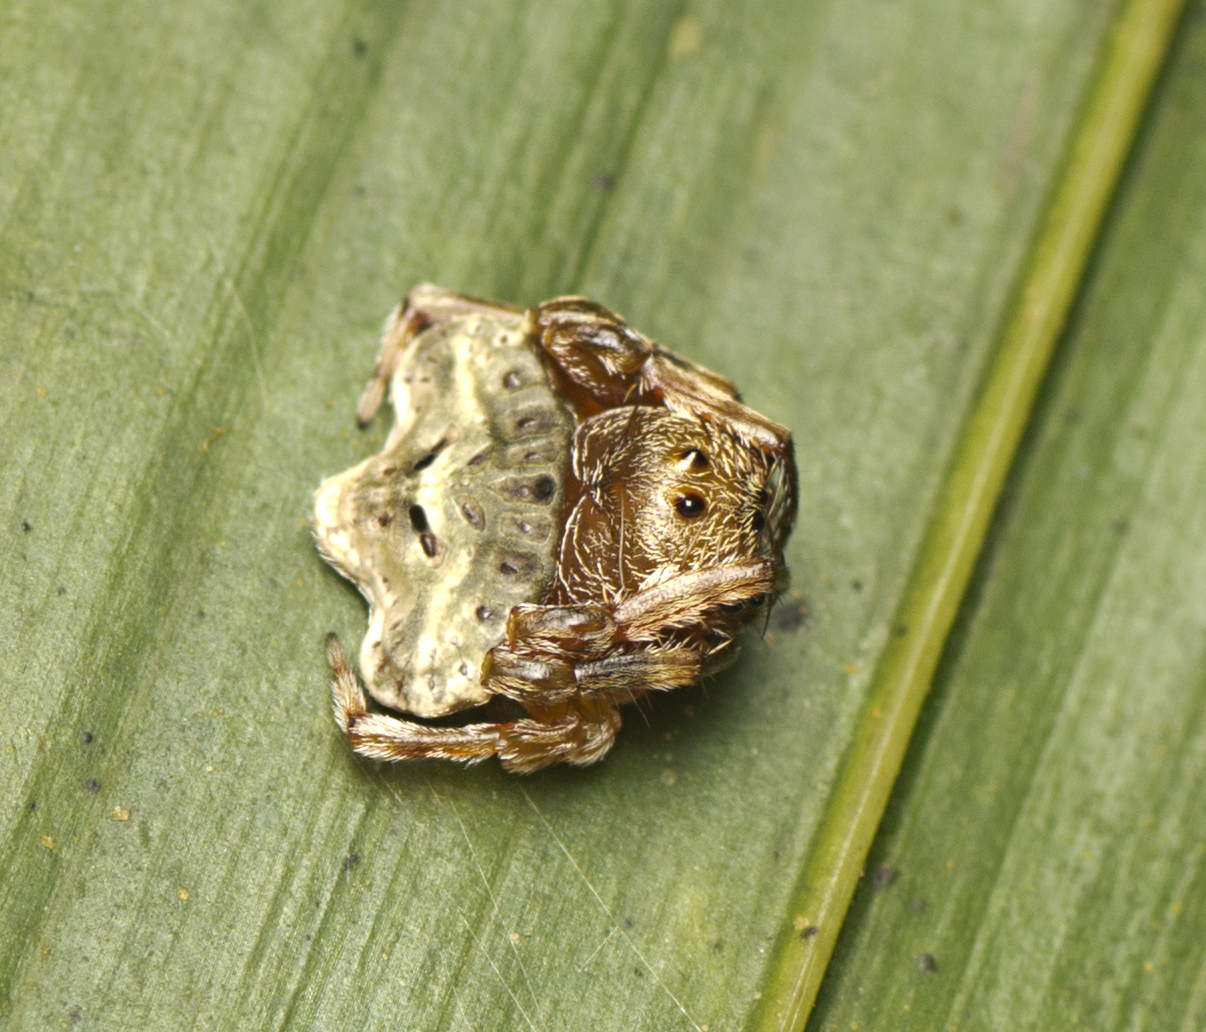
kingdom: Animalia
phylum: Arthropoda
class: Arachnida
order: Araneae
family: Arkyidae
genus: Arkys
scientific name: Arkys speechleyi
